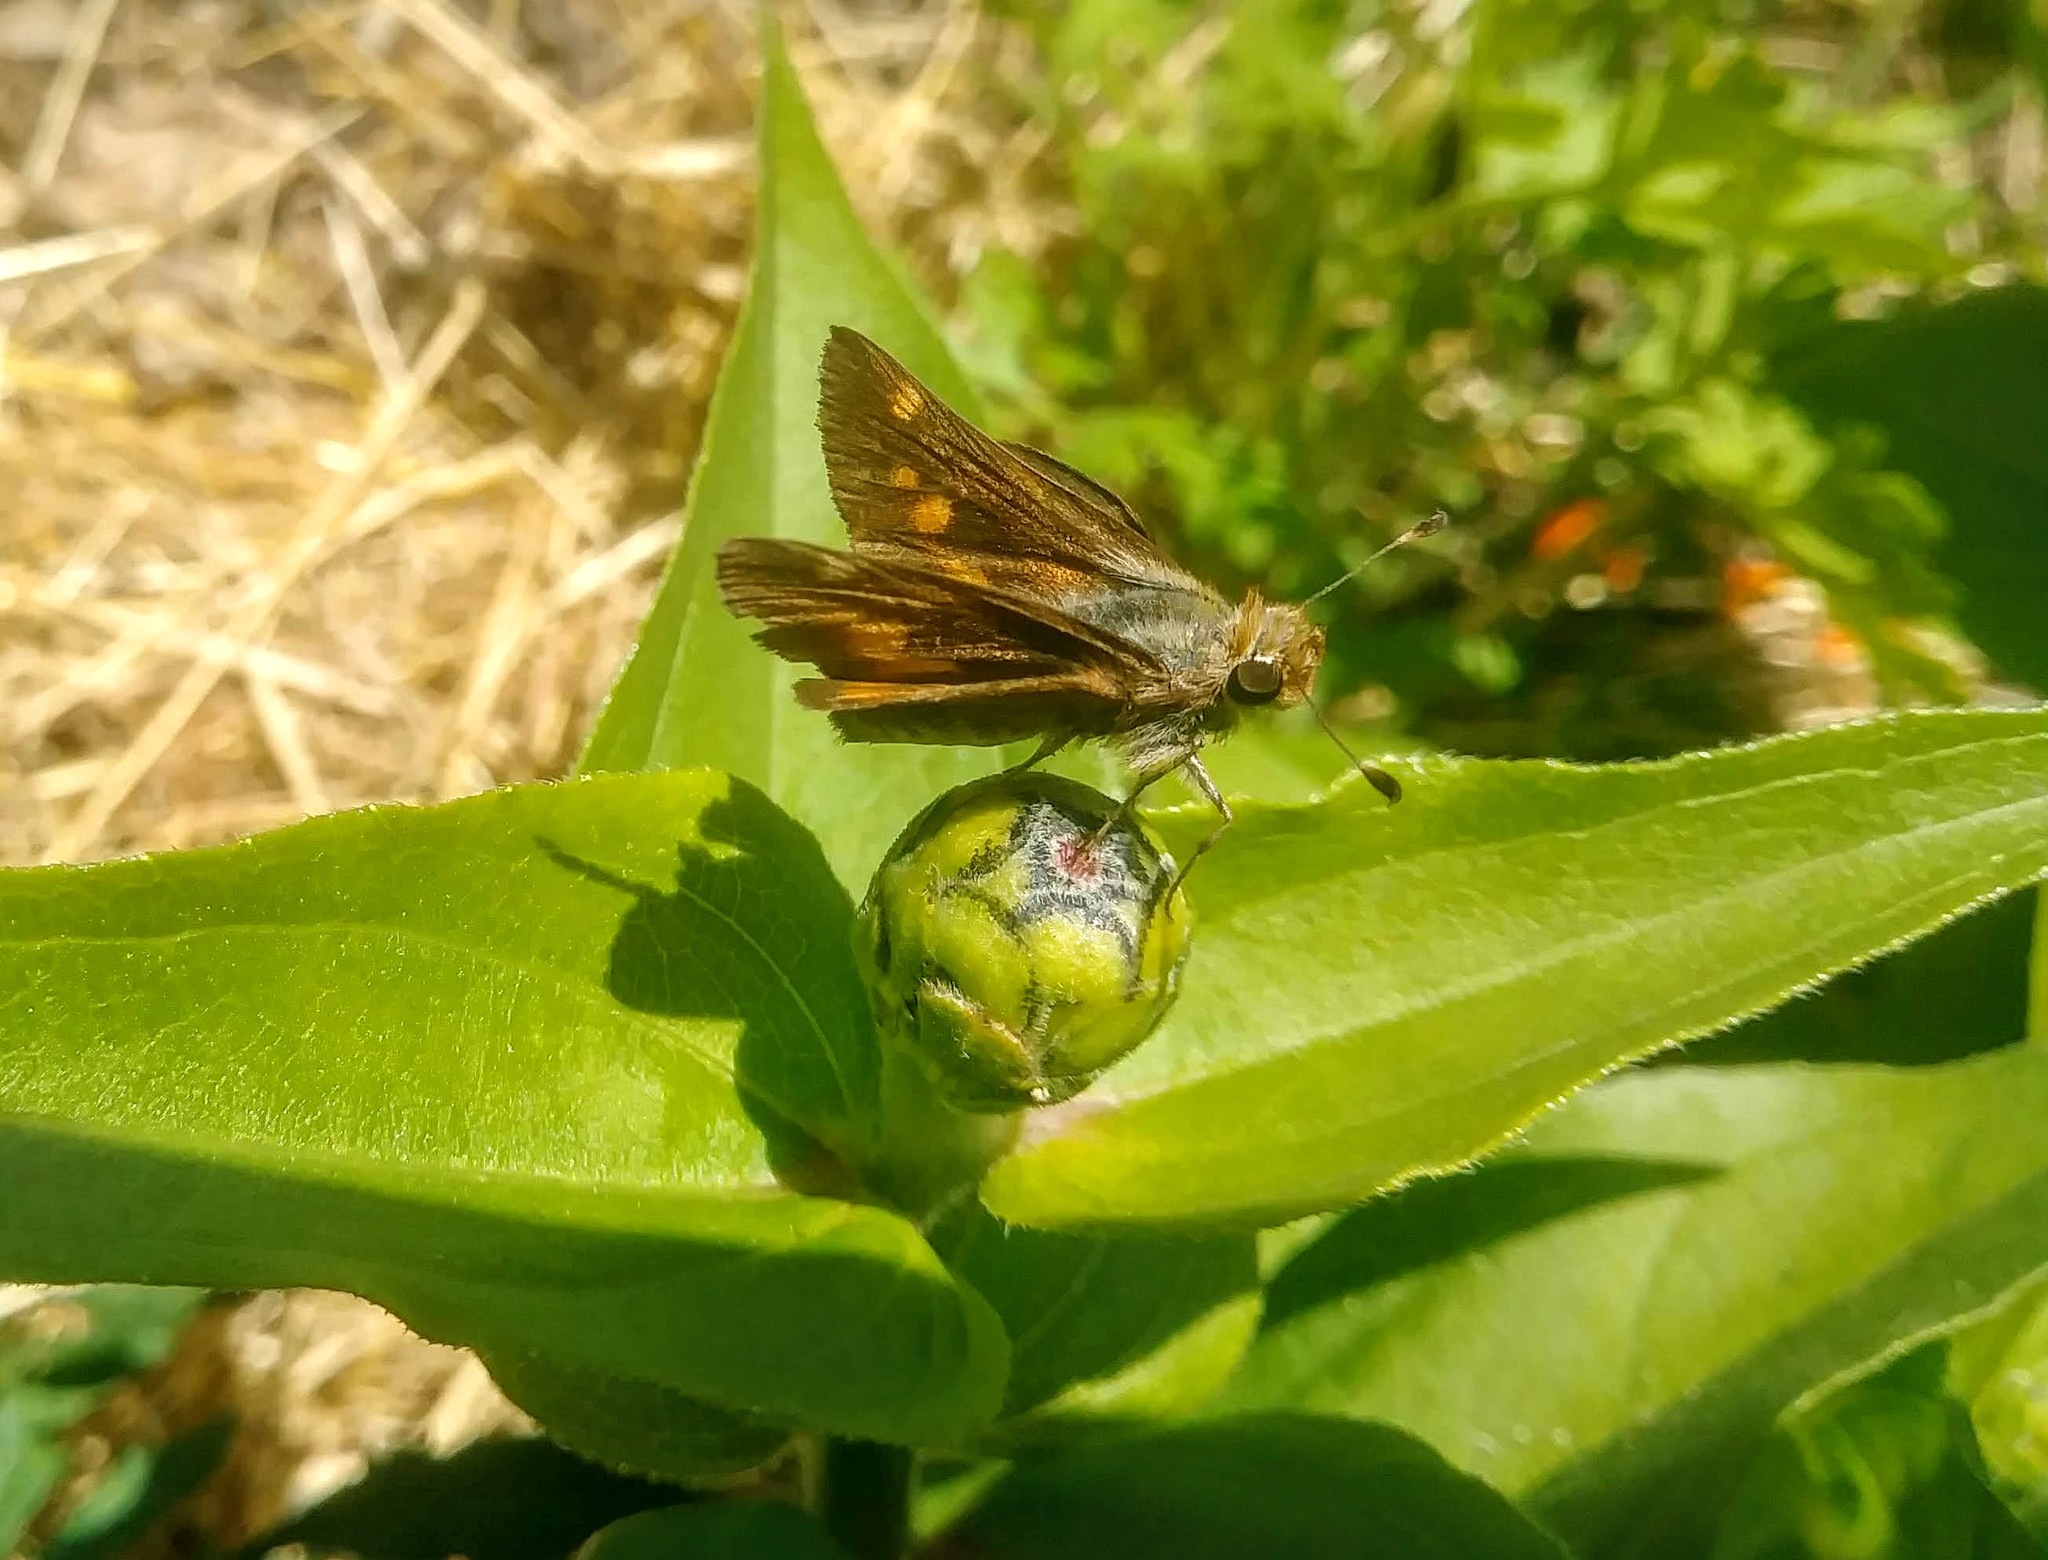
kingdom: Animalia
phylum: Arthropoda
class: Insecta
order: Lepidoptera
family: Hesperiidae
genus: Lon
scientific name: Lon melane
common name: Umber skipper
